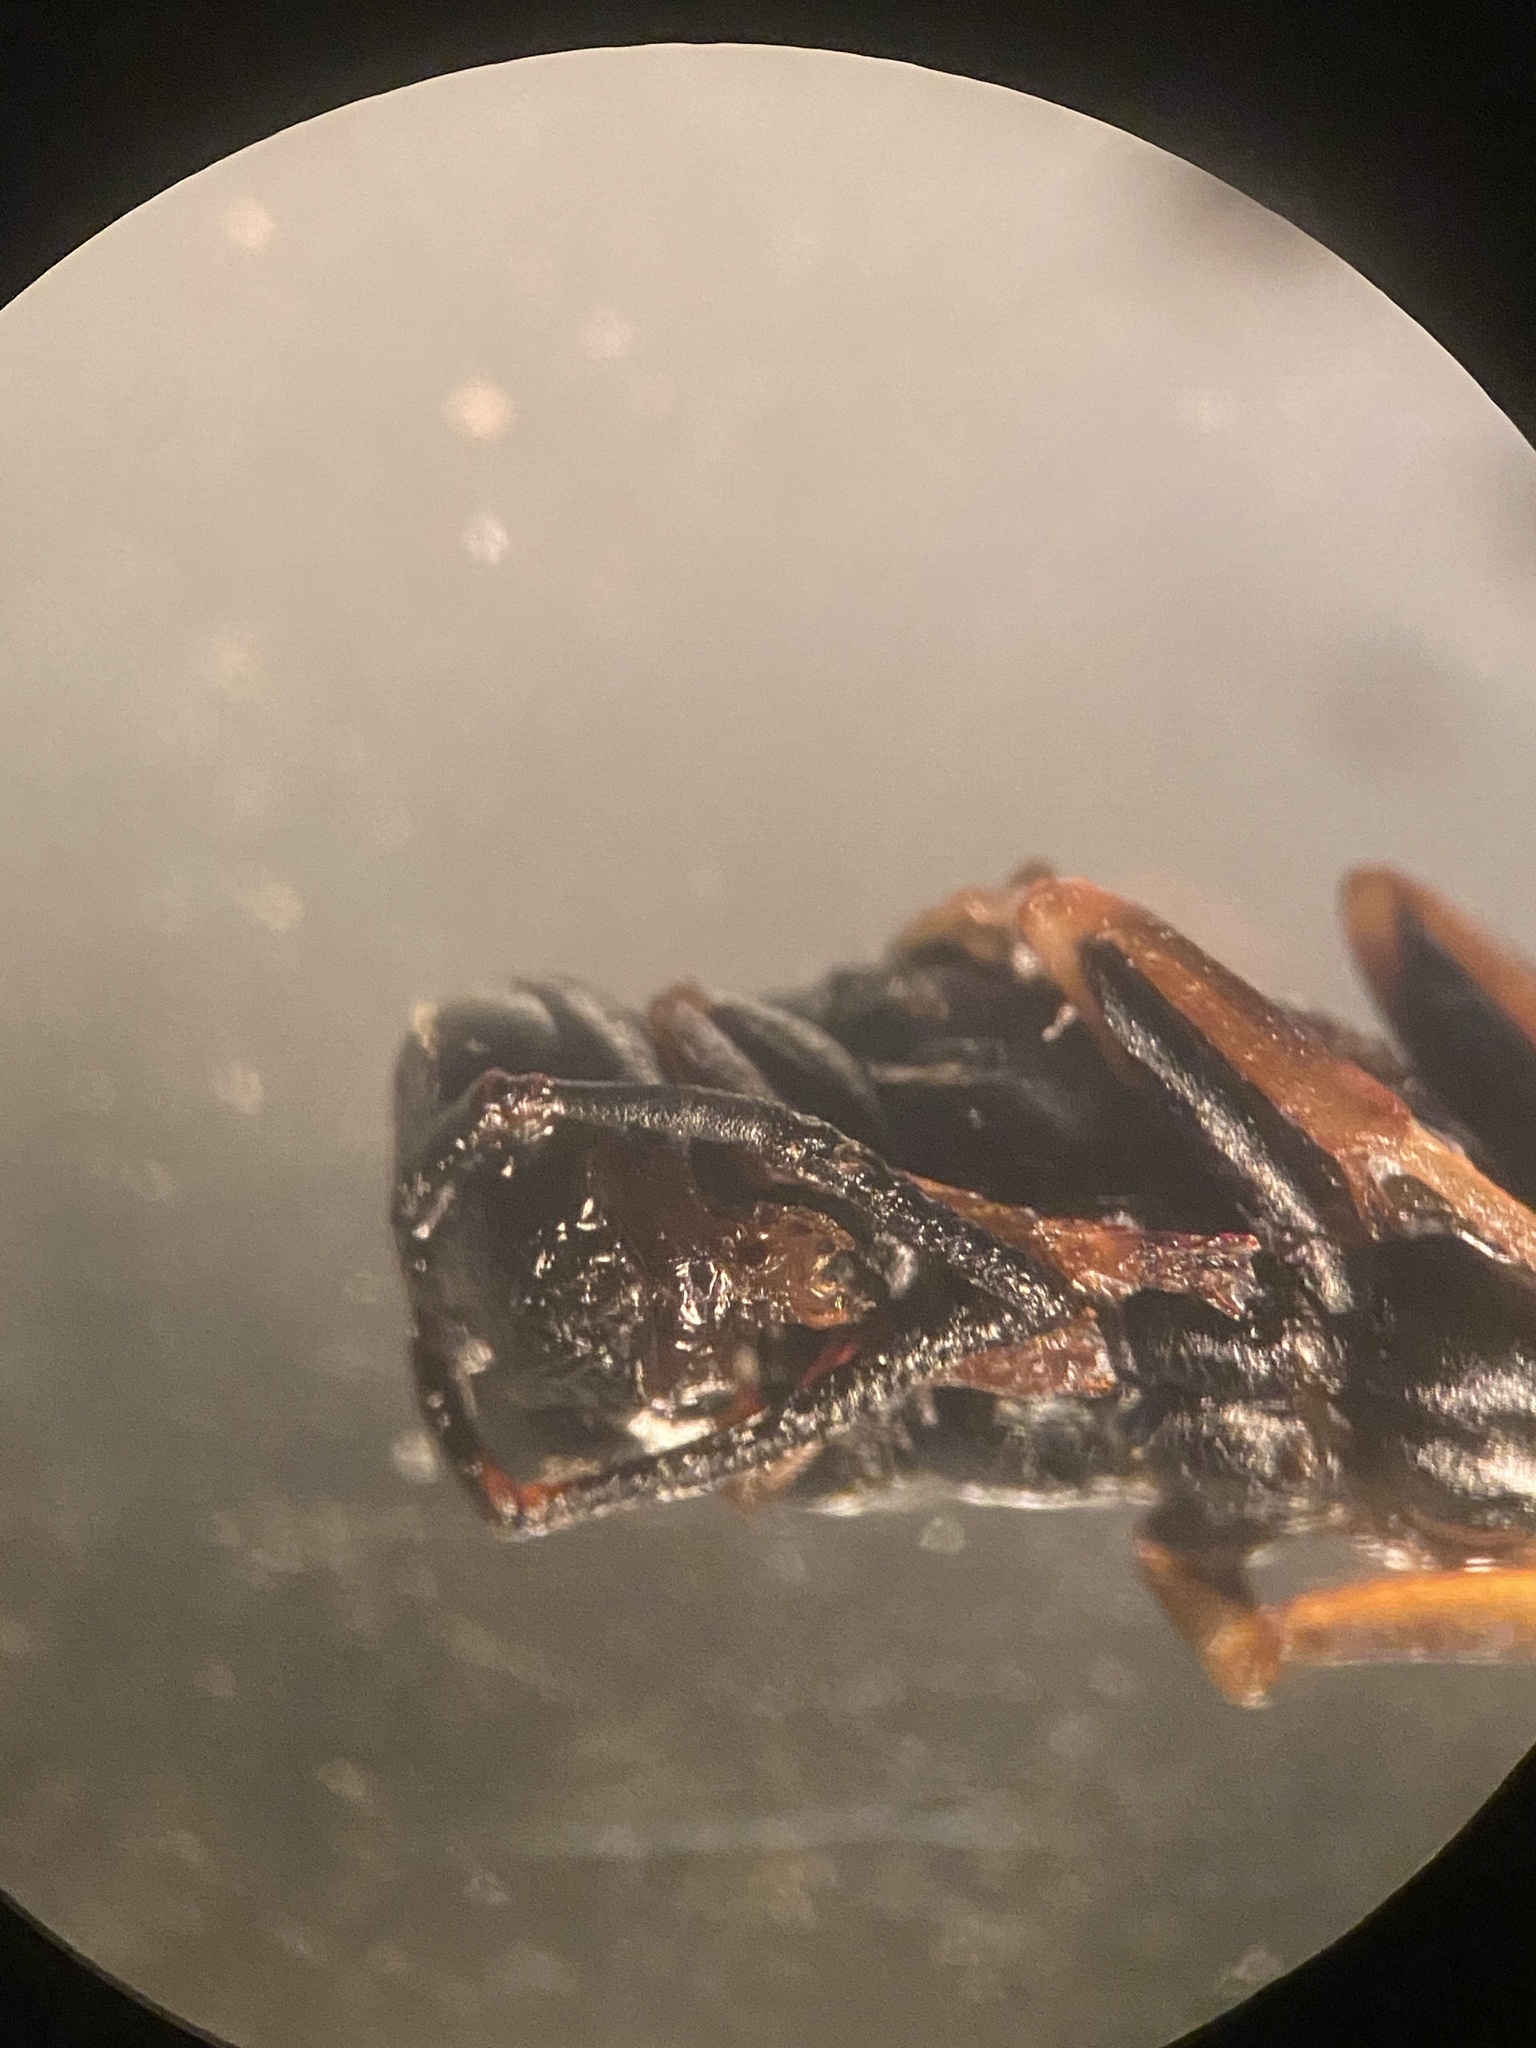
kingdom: Animalia
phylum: Arthropoda
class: Insecta
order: Hymenoptera
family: Eumenidae
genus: Polistes
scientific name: Polistes fuscatus
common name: Dark paper wasp
